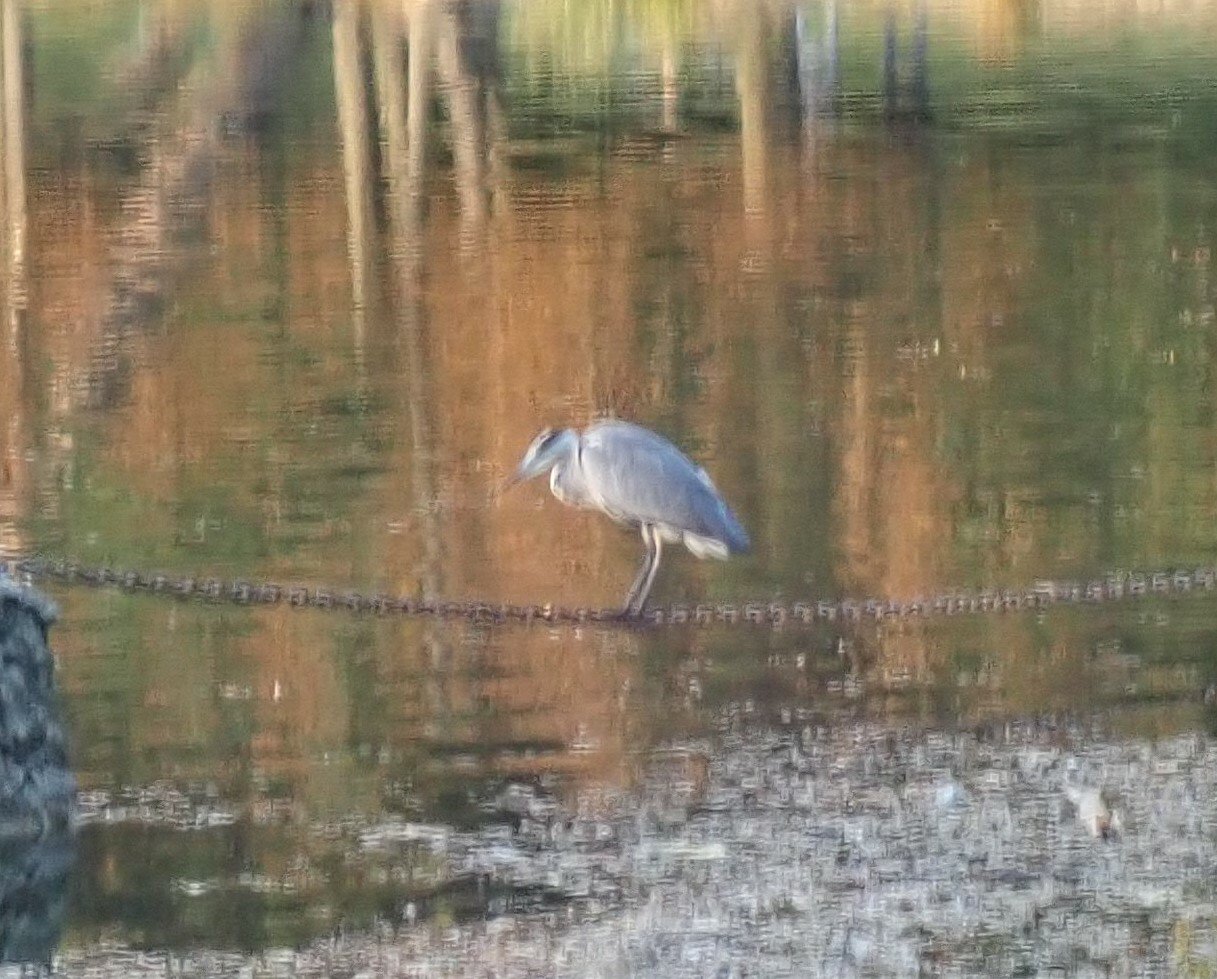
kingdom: Animalia
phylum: Chordata
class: Aves
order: Pelecaniformes
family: Ardeidae
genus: Ardea
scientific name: Ardea cinerea
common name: Grey heron
